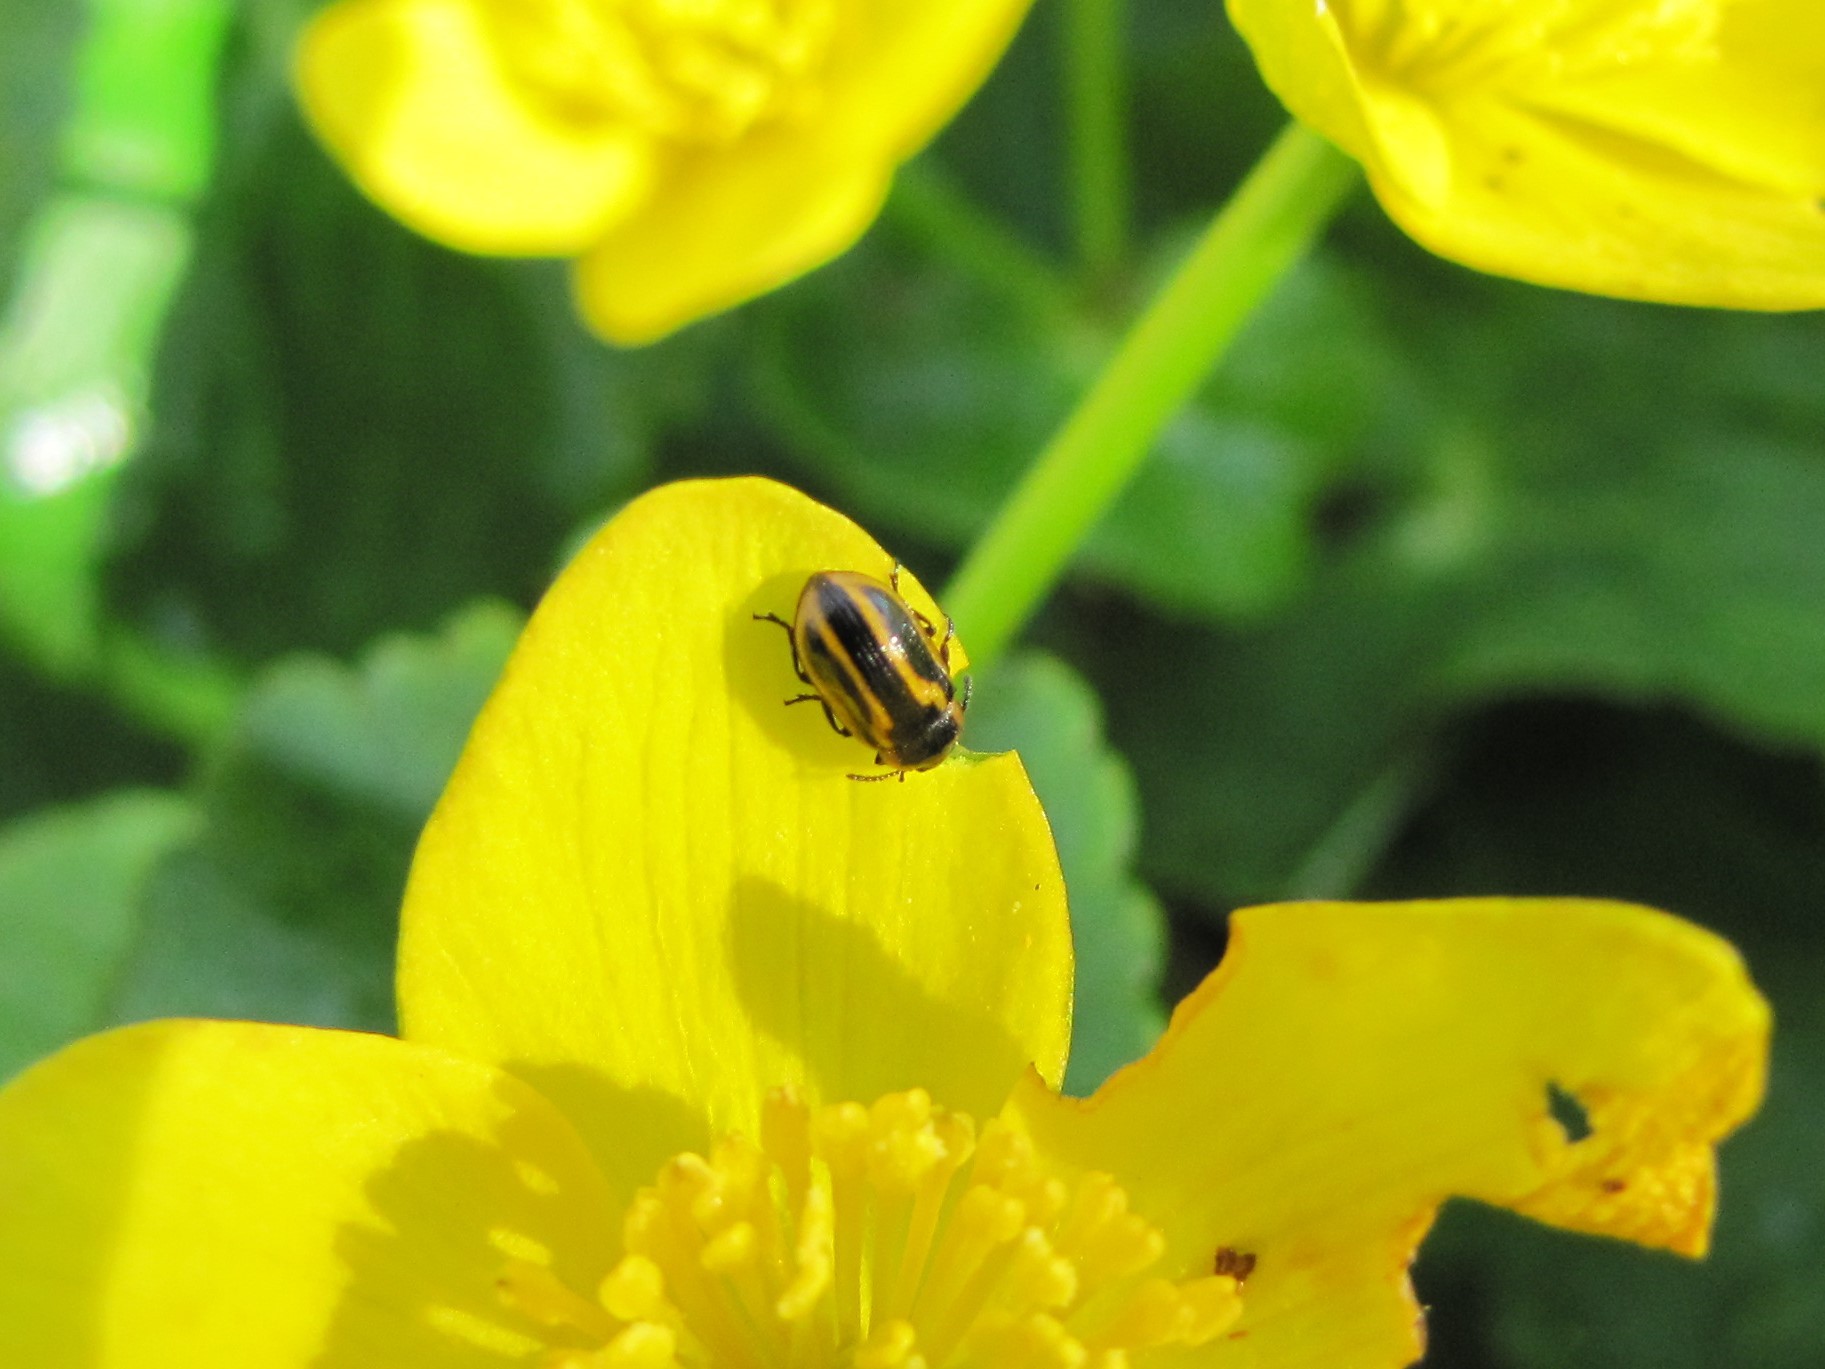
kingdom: Animalia
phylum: Arthropoda
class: Insecta
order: Coleoptera
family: Chrysomelidae
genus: Prasocuris
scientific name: Prasocuris boreella
